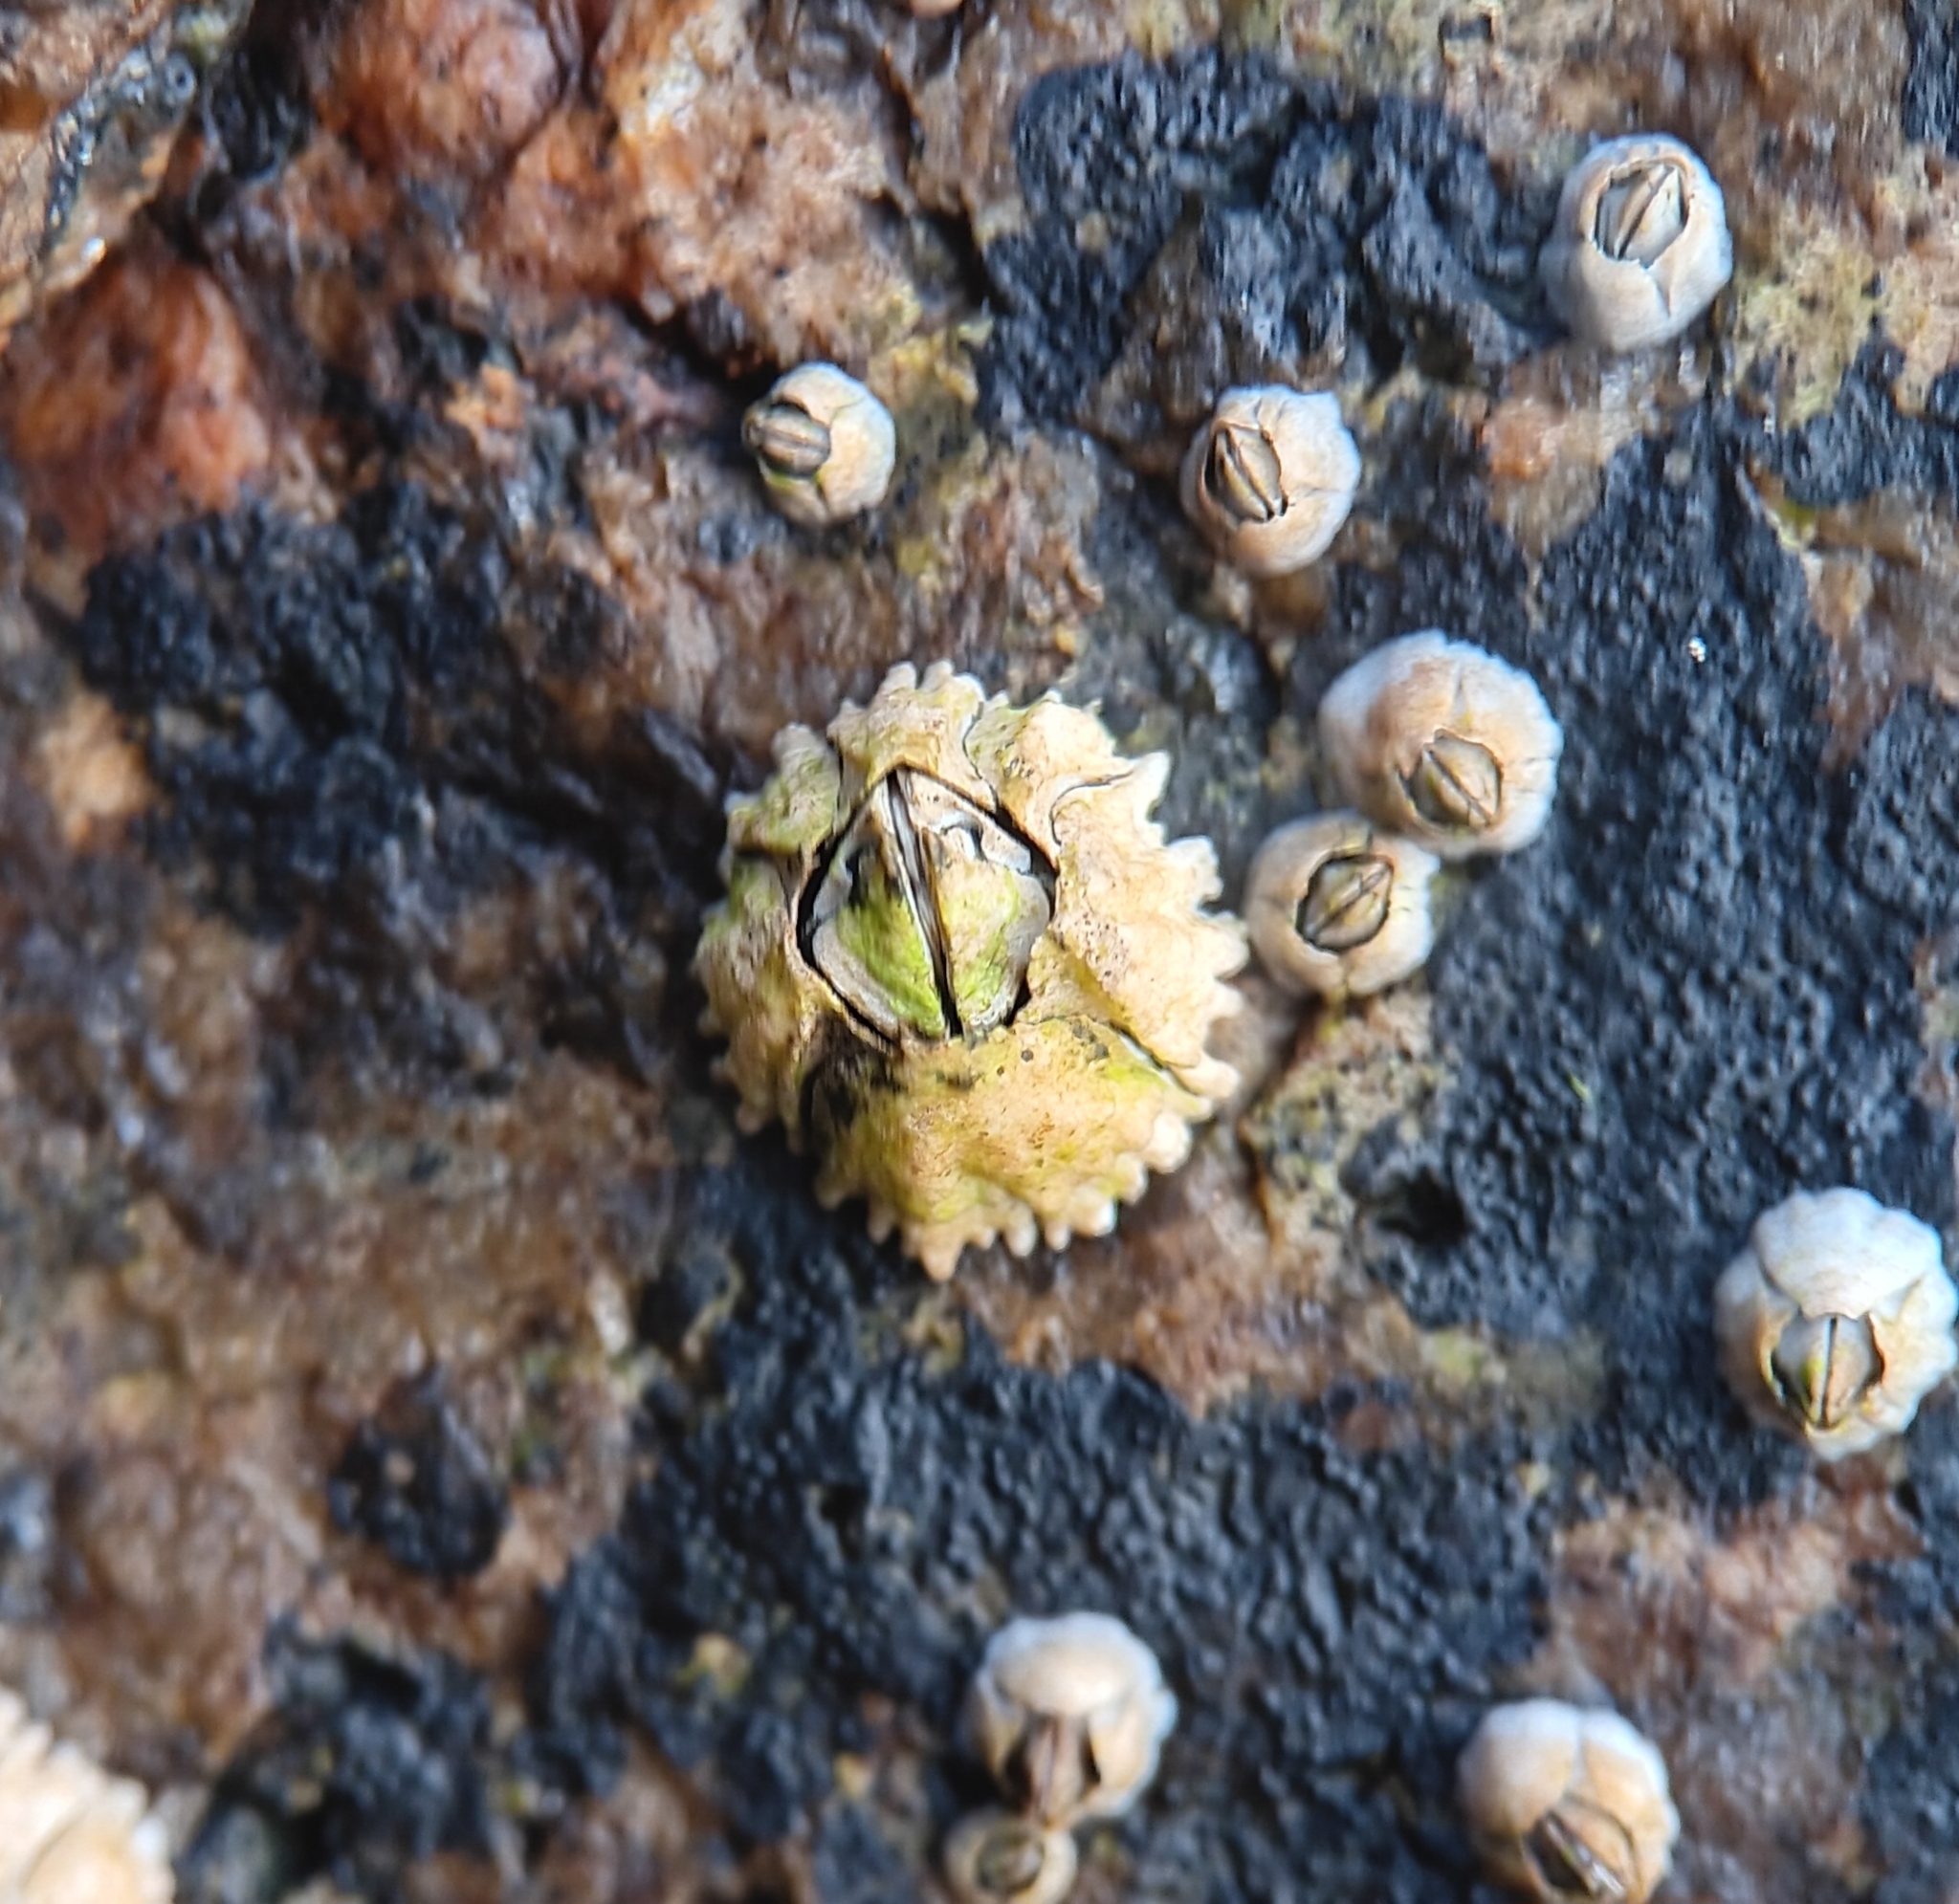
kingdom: Animalia
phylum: Arthropoda
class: Maxillopoda
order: Sessilia
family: Archaeobalanidae
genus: Semibalanus
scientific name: Semibalanus balanoides
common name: Acorn barnacle
